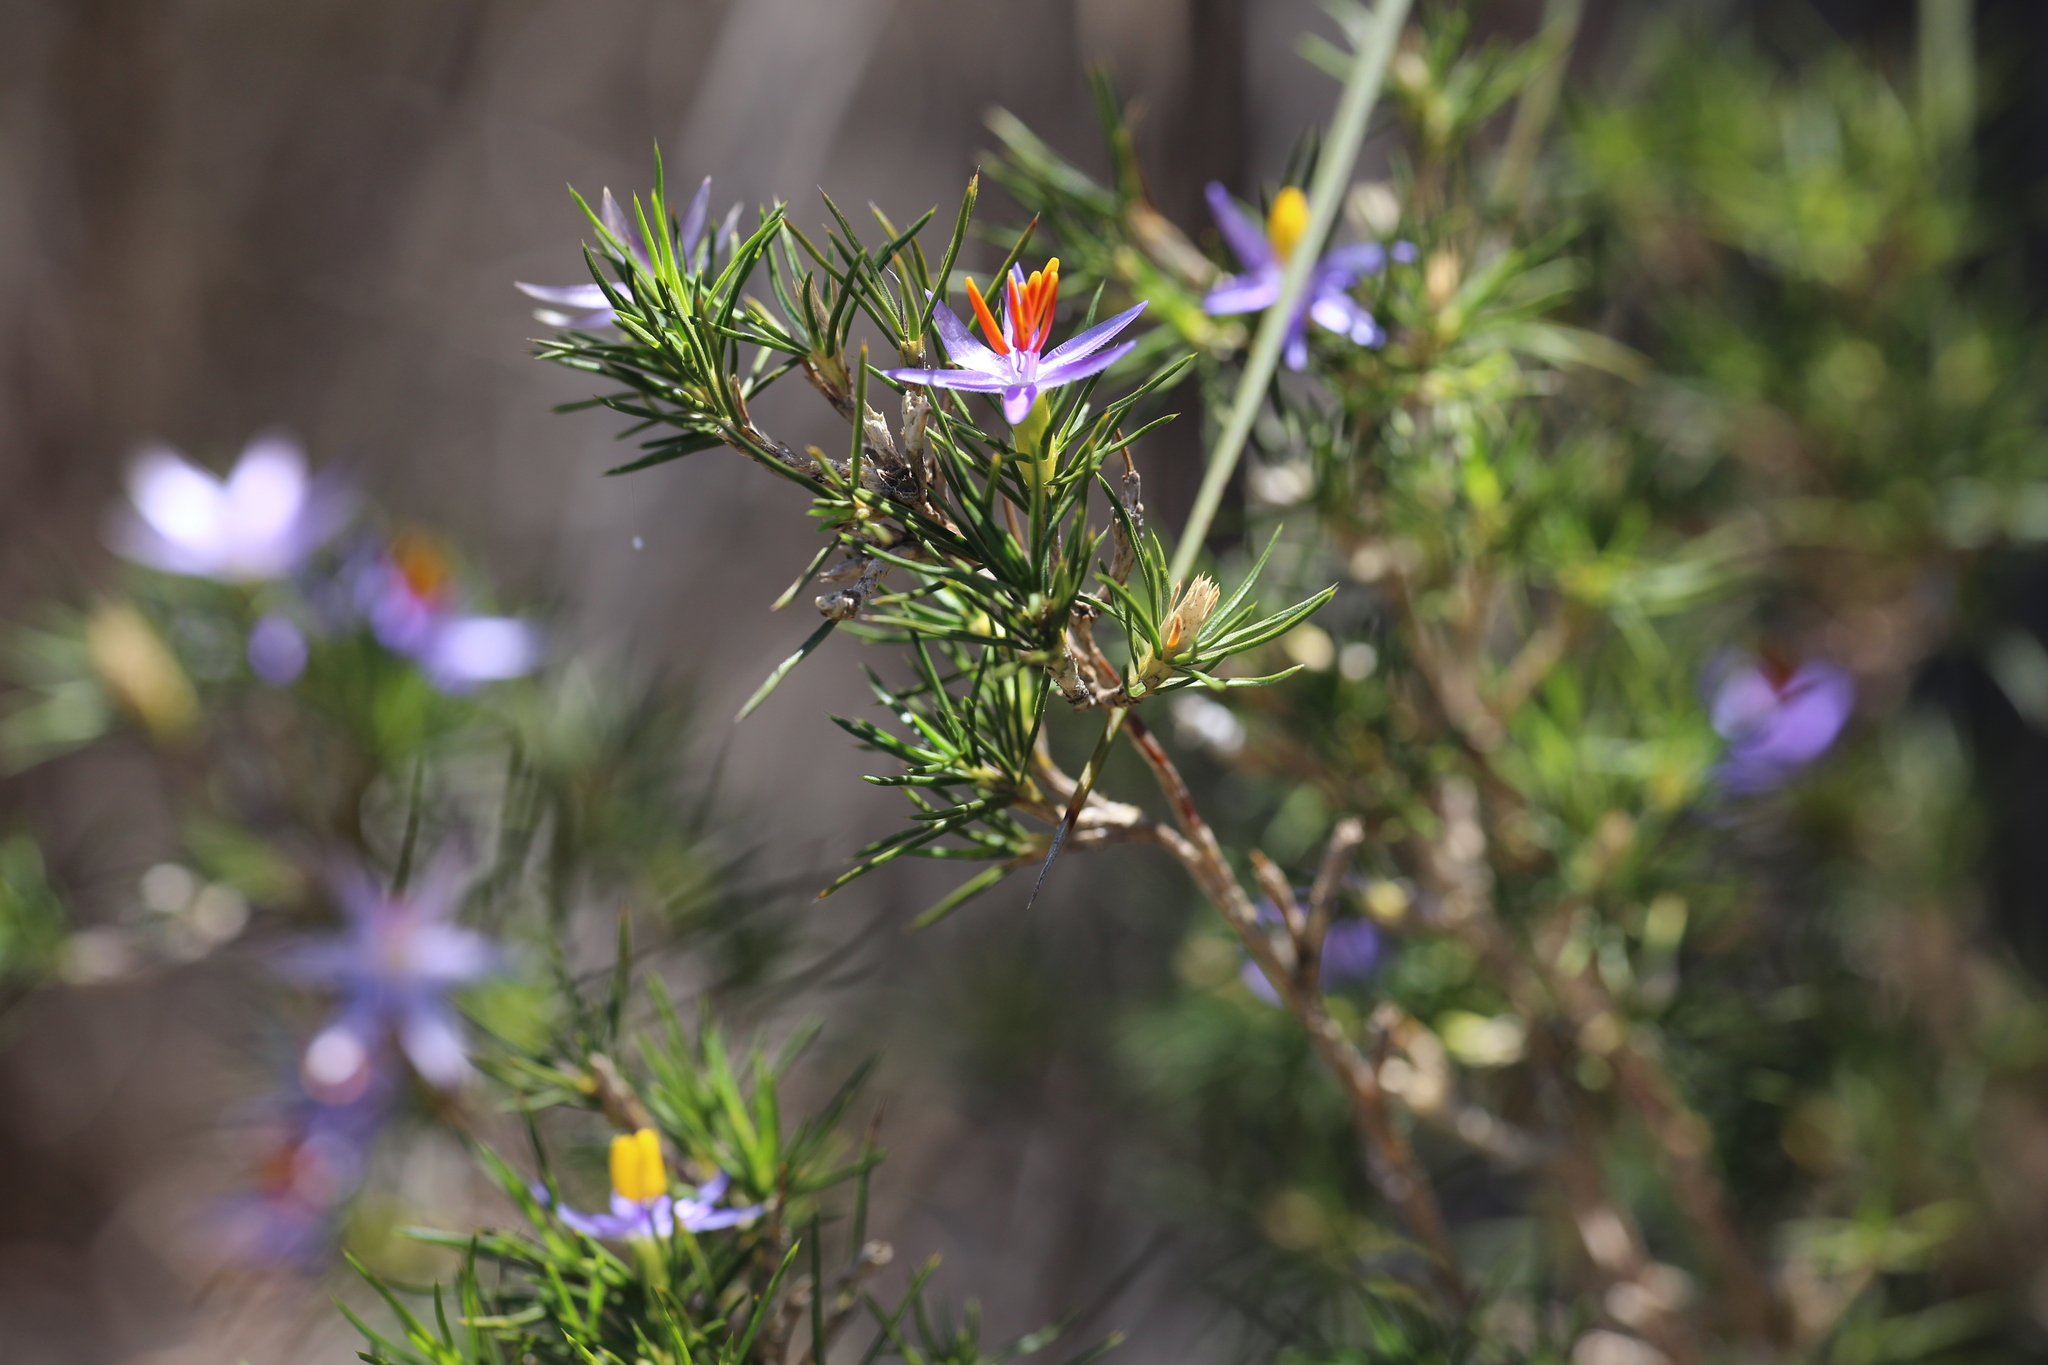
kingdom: Plantae
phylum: Tracheophyta
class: Liliopsida
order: Arecales
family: Dasypogonaceae
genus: Calectasia
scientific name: Calectasia narragara
